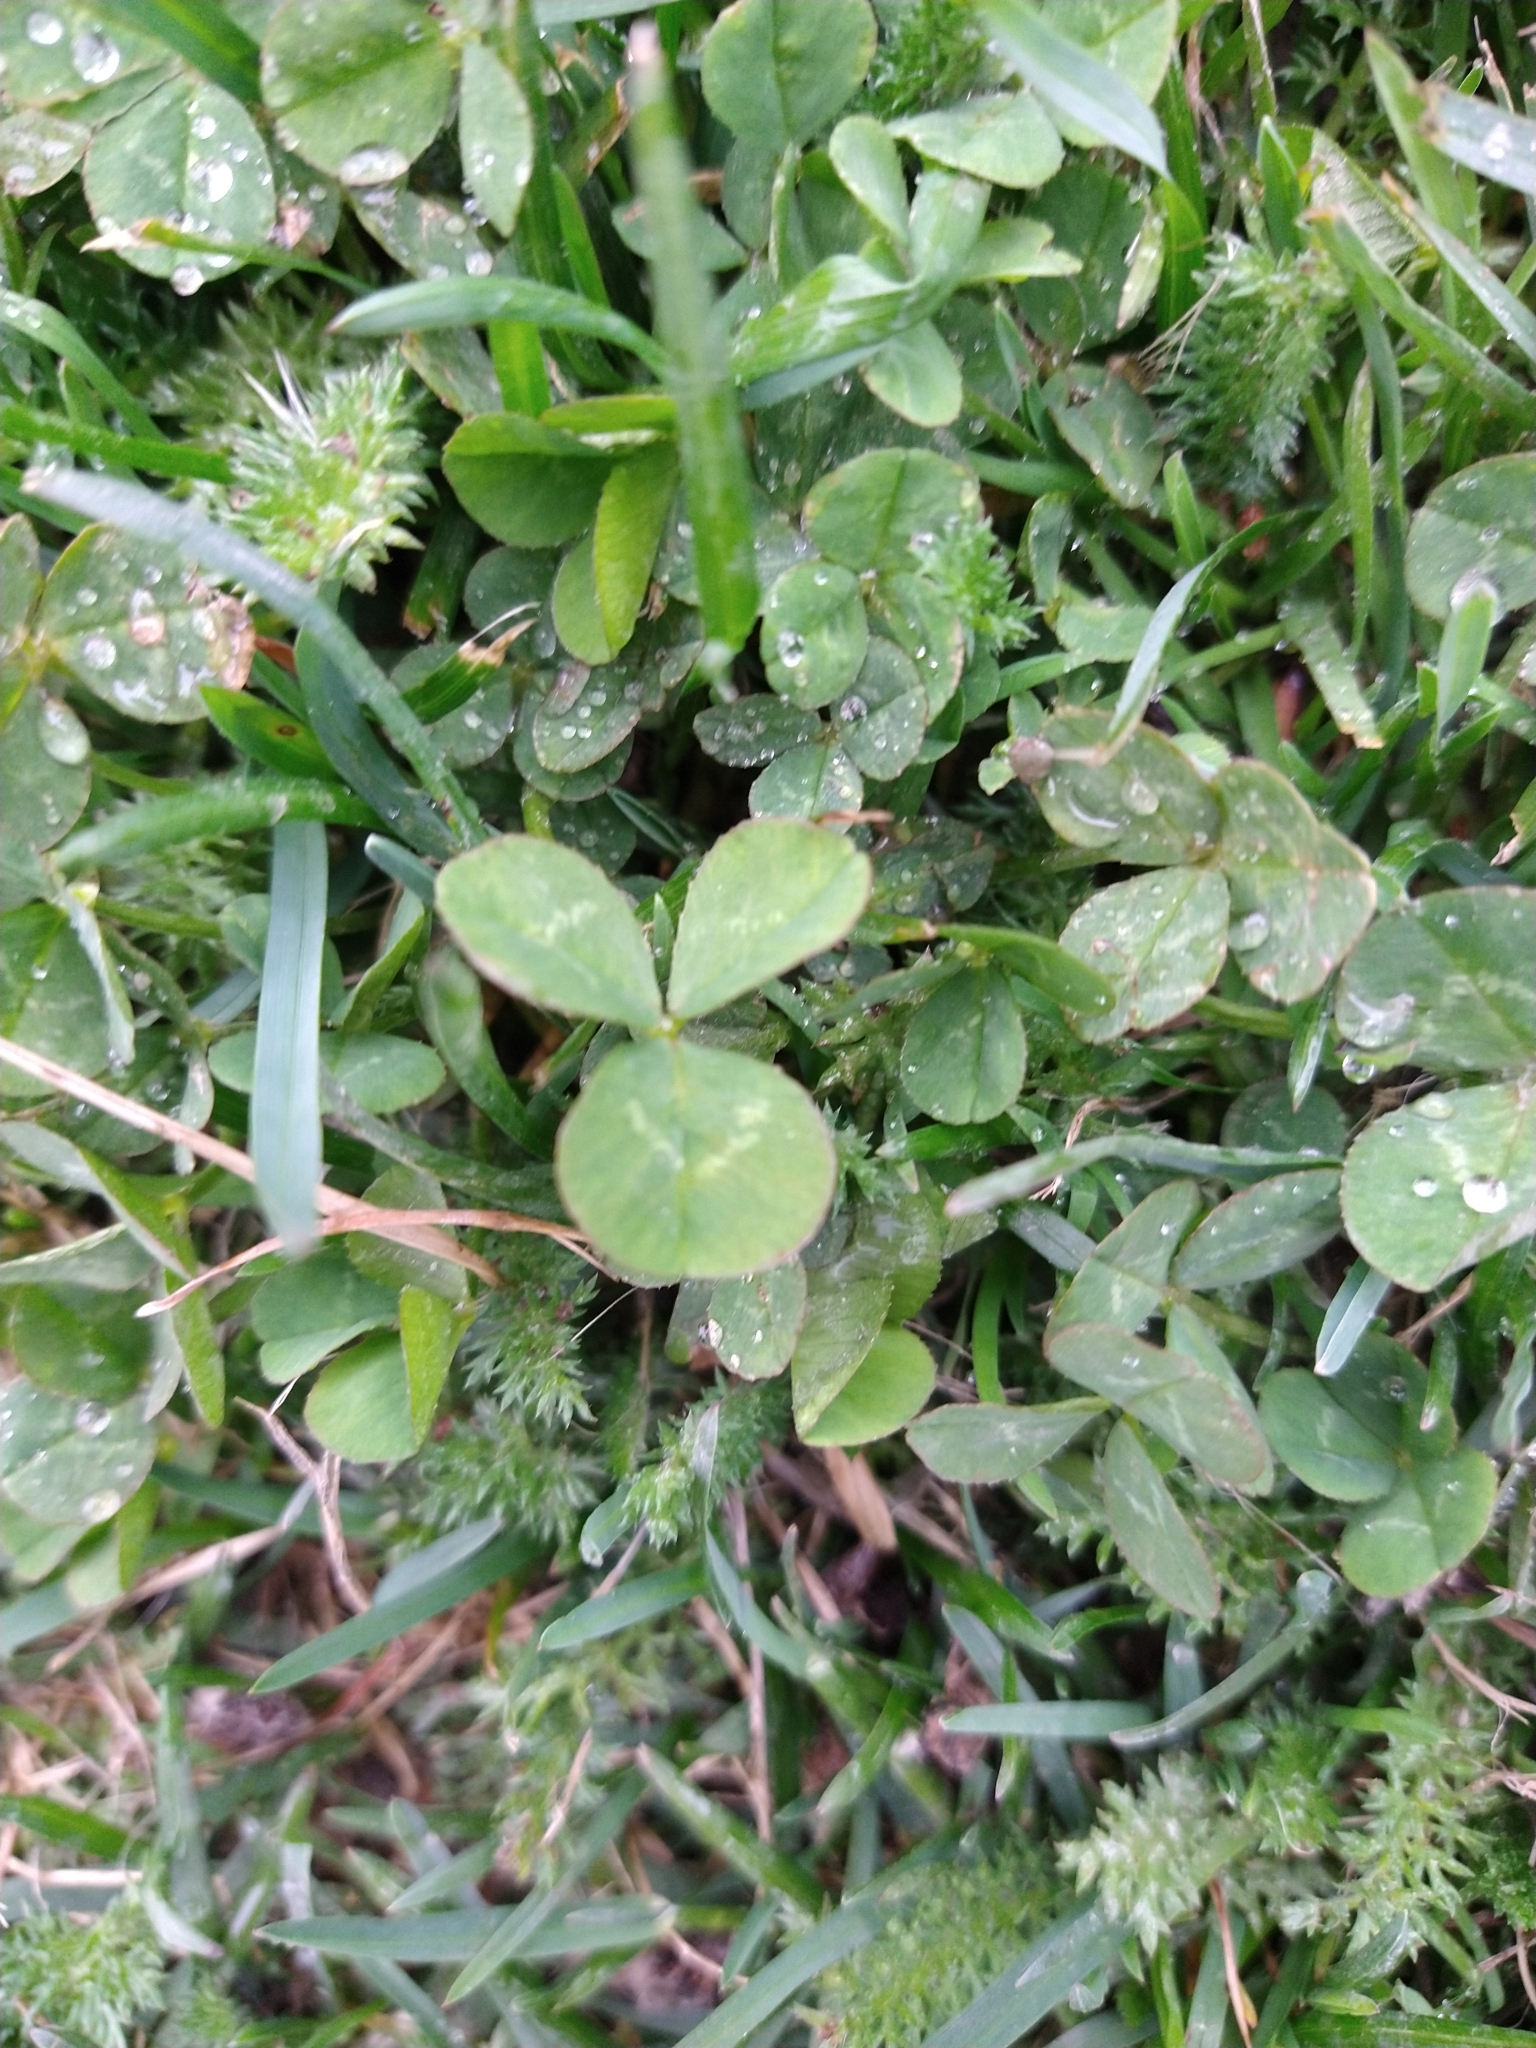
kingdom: Plantae
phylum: Tracheophyta
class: Magnoliopsida
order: Fabales
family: Fabaceae
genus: Trifolium
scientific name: Trifolium repens
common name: White clover
